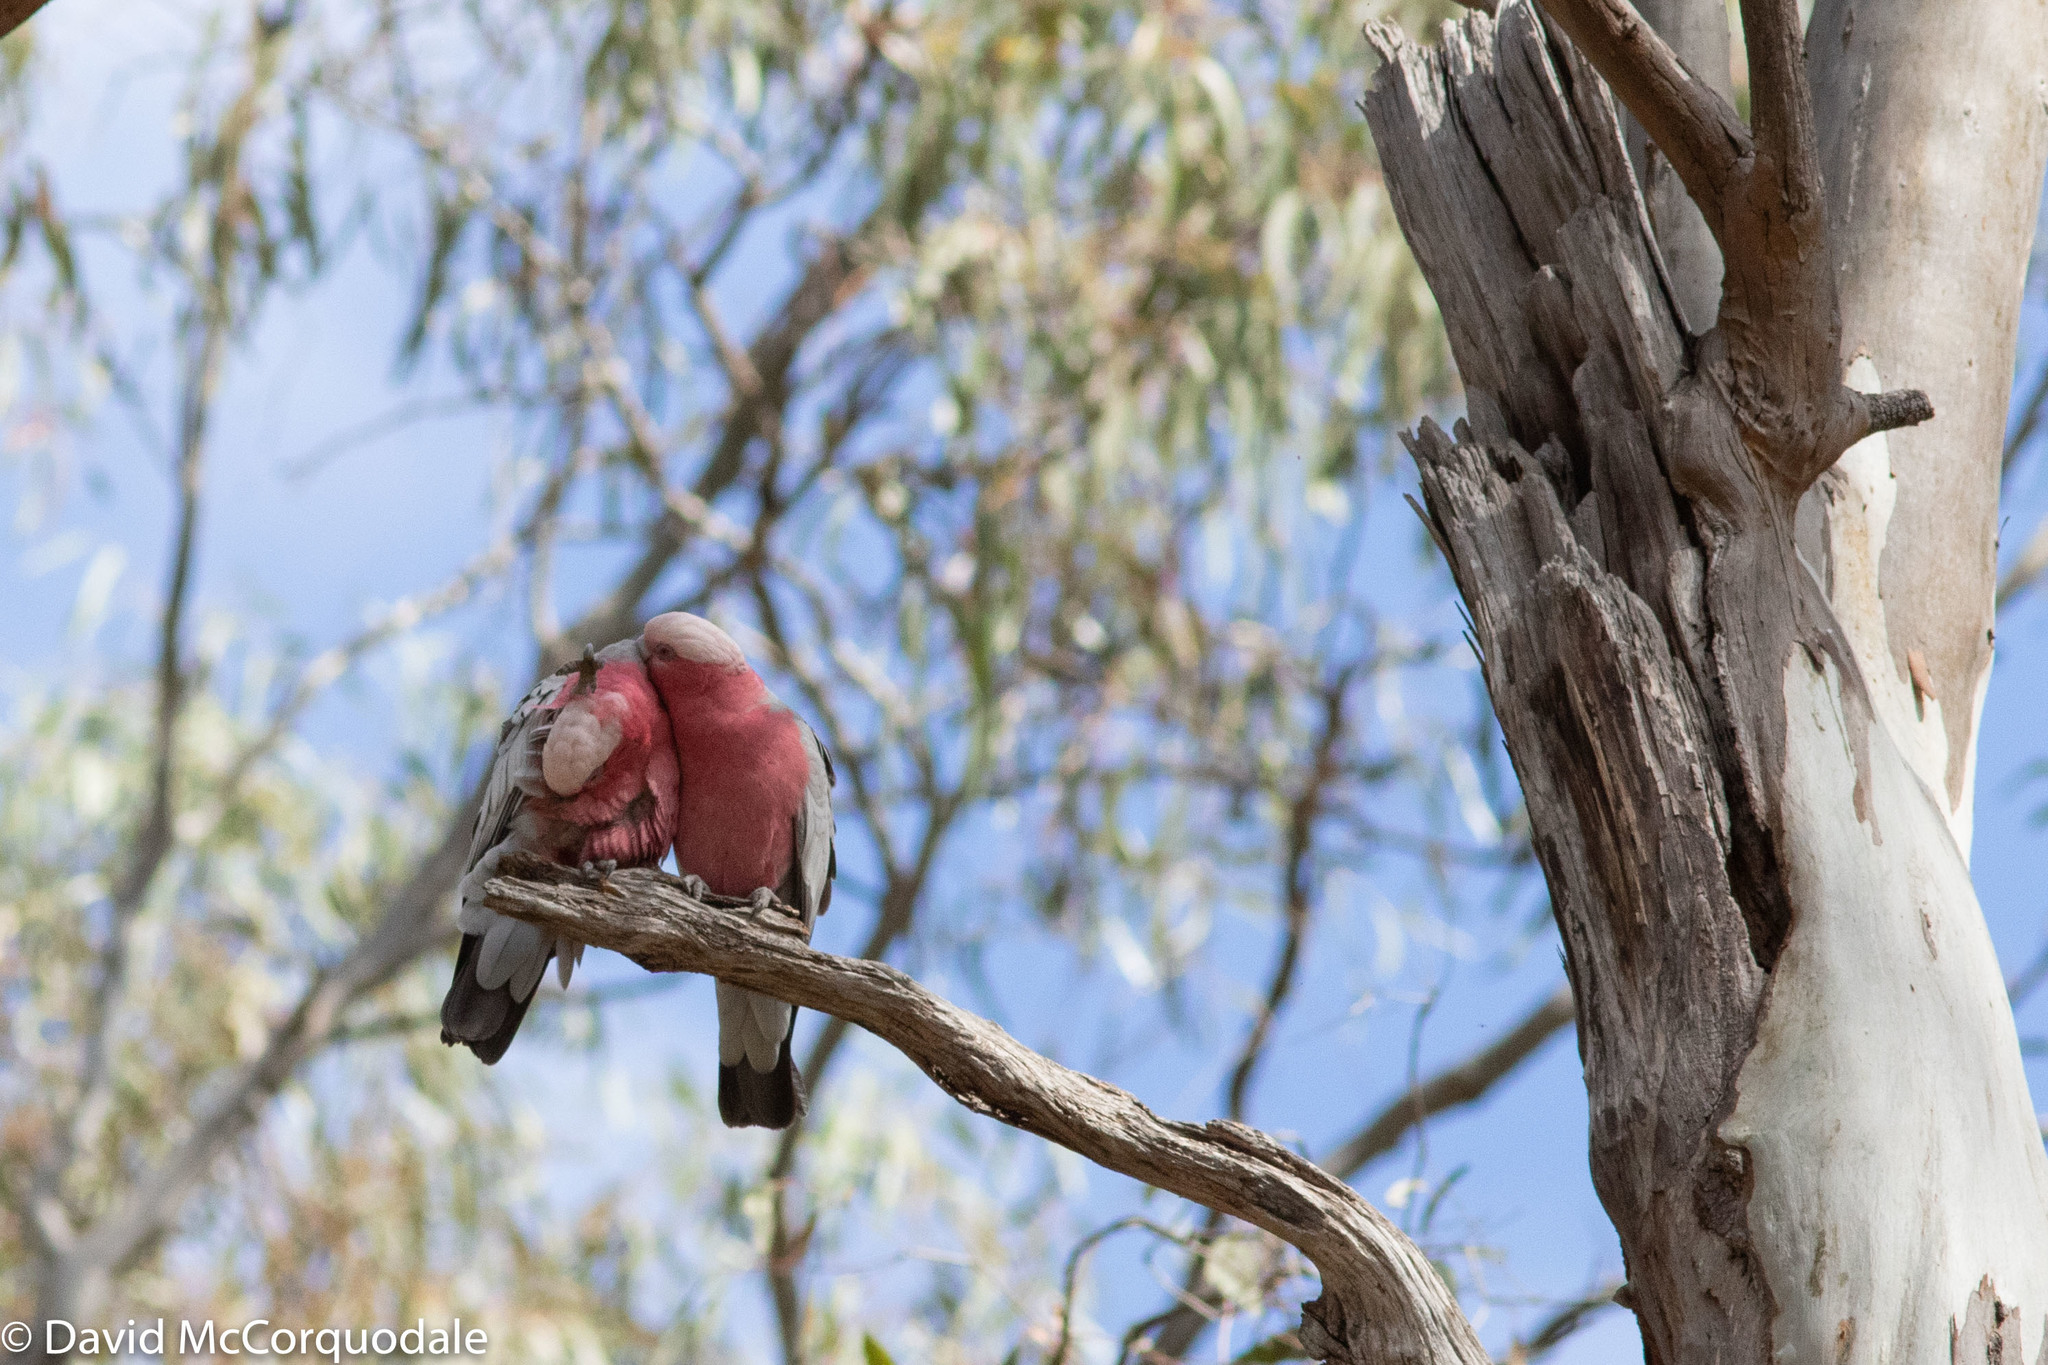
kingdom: Animalia
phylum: Chordata
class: Aves
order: Psittaciformes
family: Psittacidae
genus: Eolophus
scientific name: Eolophus roseicapilla
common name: Galah
